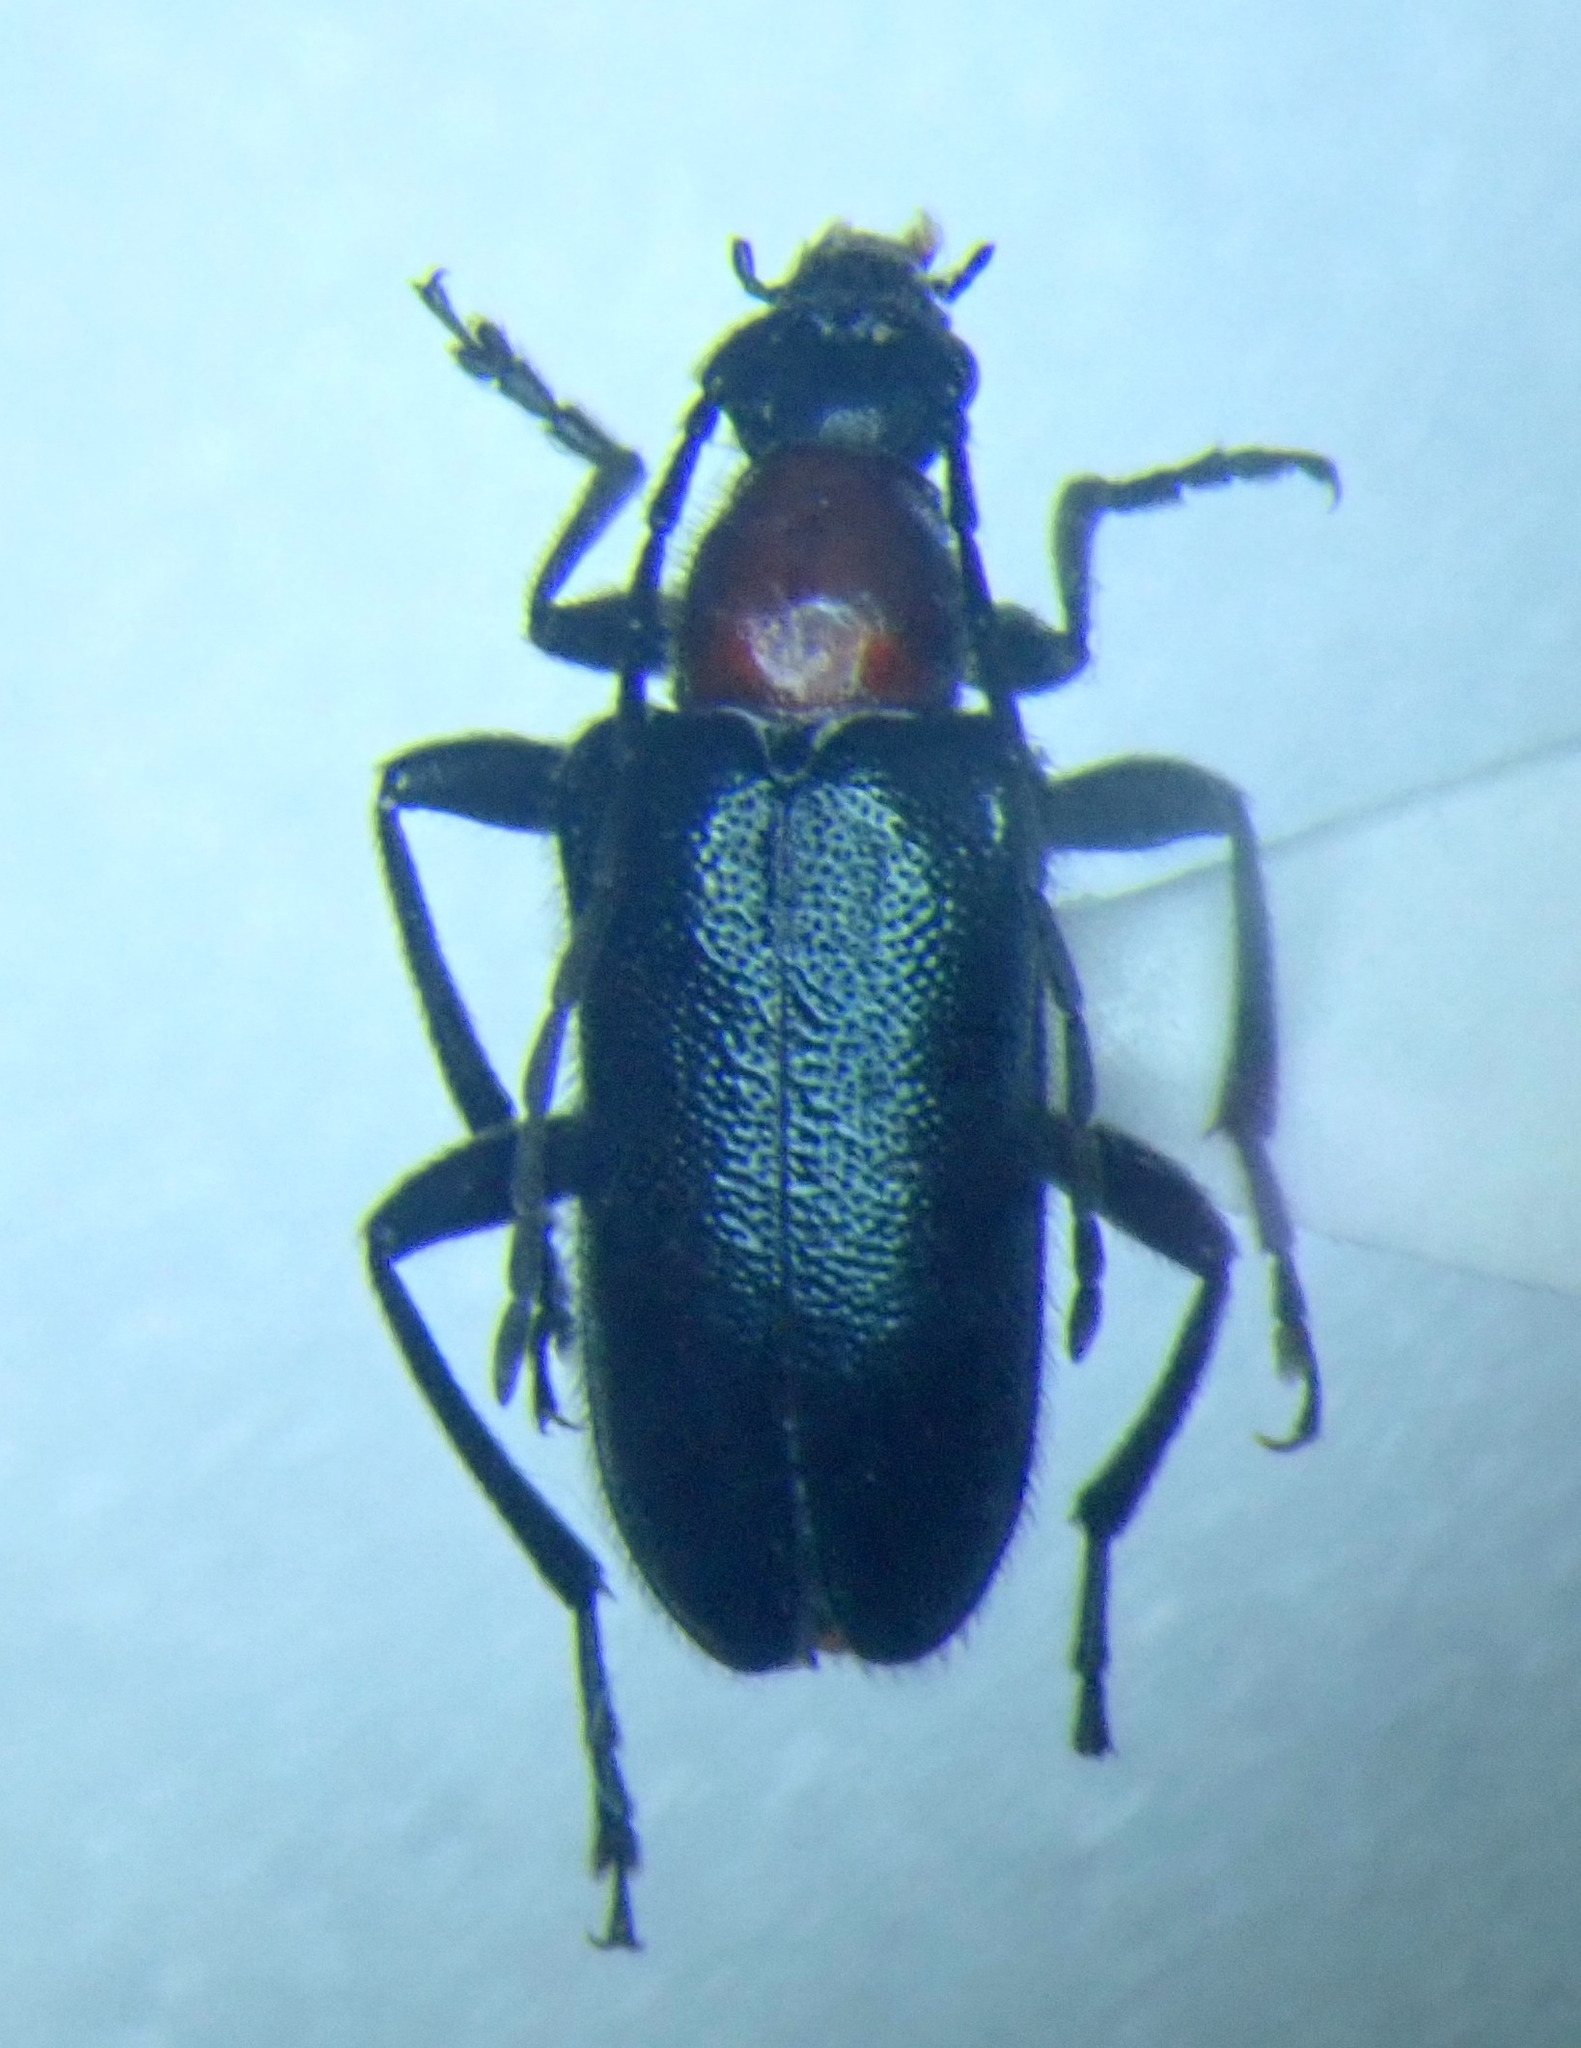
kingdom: Animalia
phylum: Arthropoda
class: Insecta
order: Coleoptera
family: Cerambycidae
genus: Dinoptera
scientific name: Dinoptera collaris
